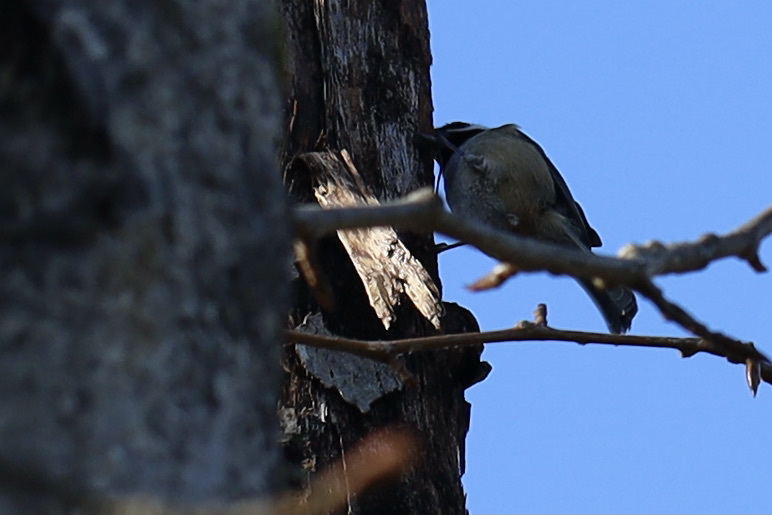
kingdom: Animalia
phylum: Chordata
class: Aves
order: Passeriformes
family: Paridae
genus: Poecile
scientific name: Poecile atricapillus
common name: Black-capped chickadee
